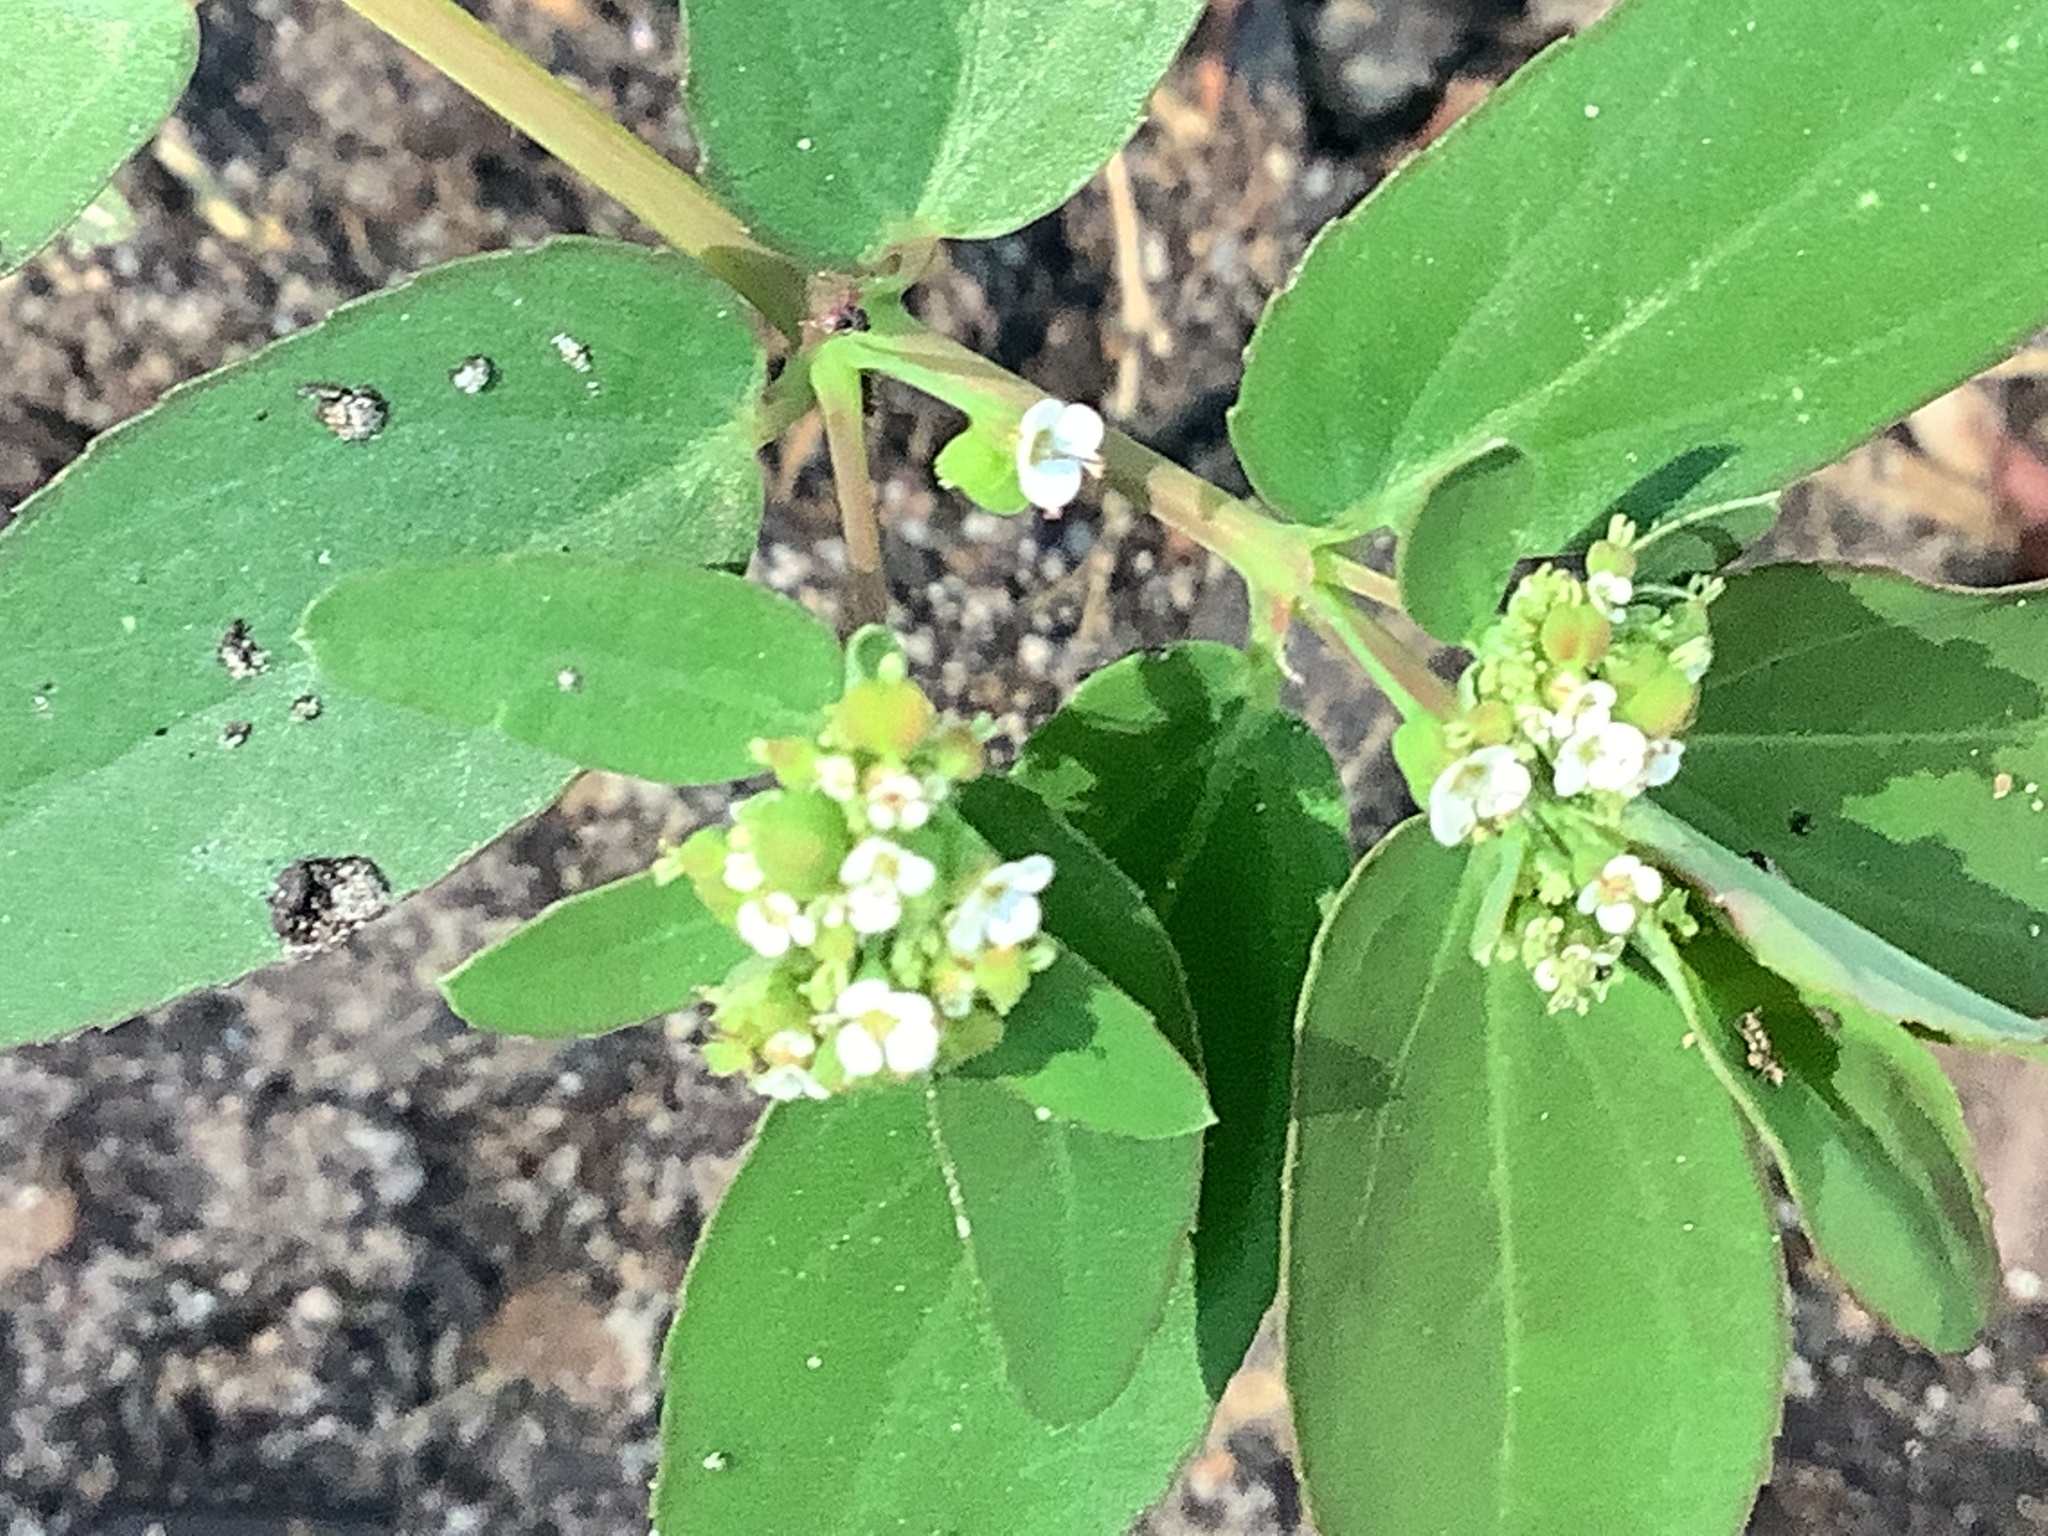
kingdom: Plantae
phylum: Tracheophyta
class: Magnoliopsida
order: Malpighiales
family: Euphorbiaceae
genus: Euphorbia
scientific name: Euphorbia hypericifolia
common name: Graceful sandmat
